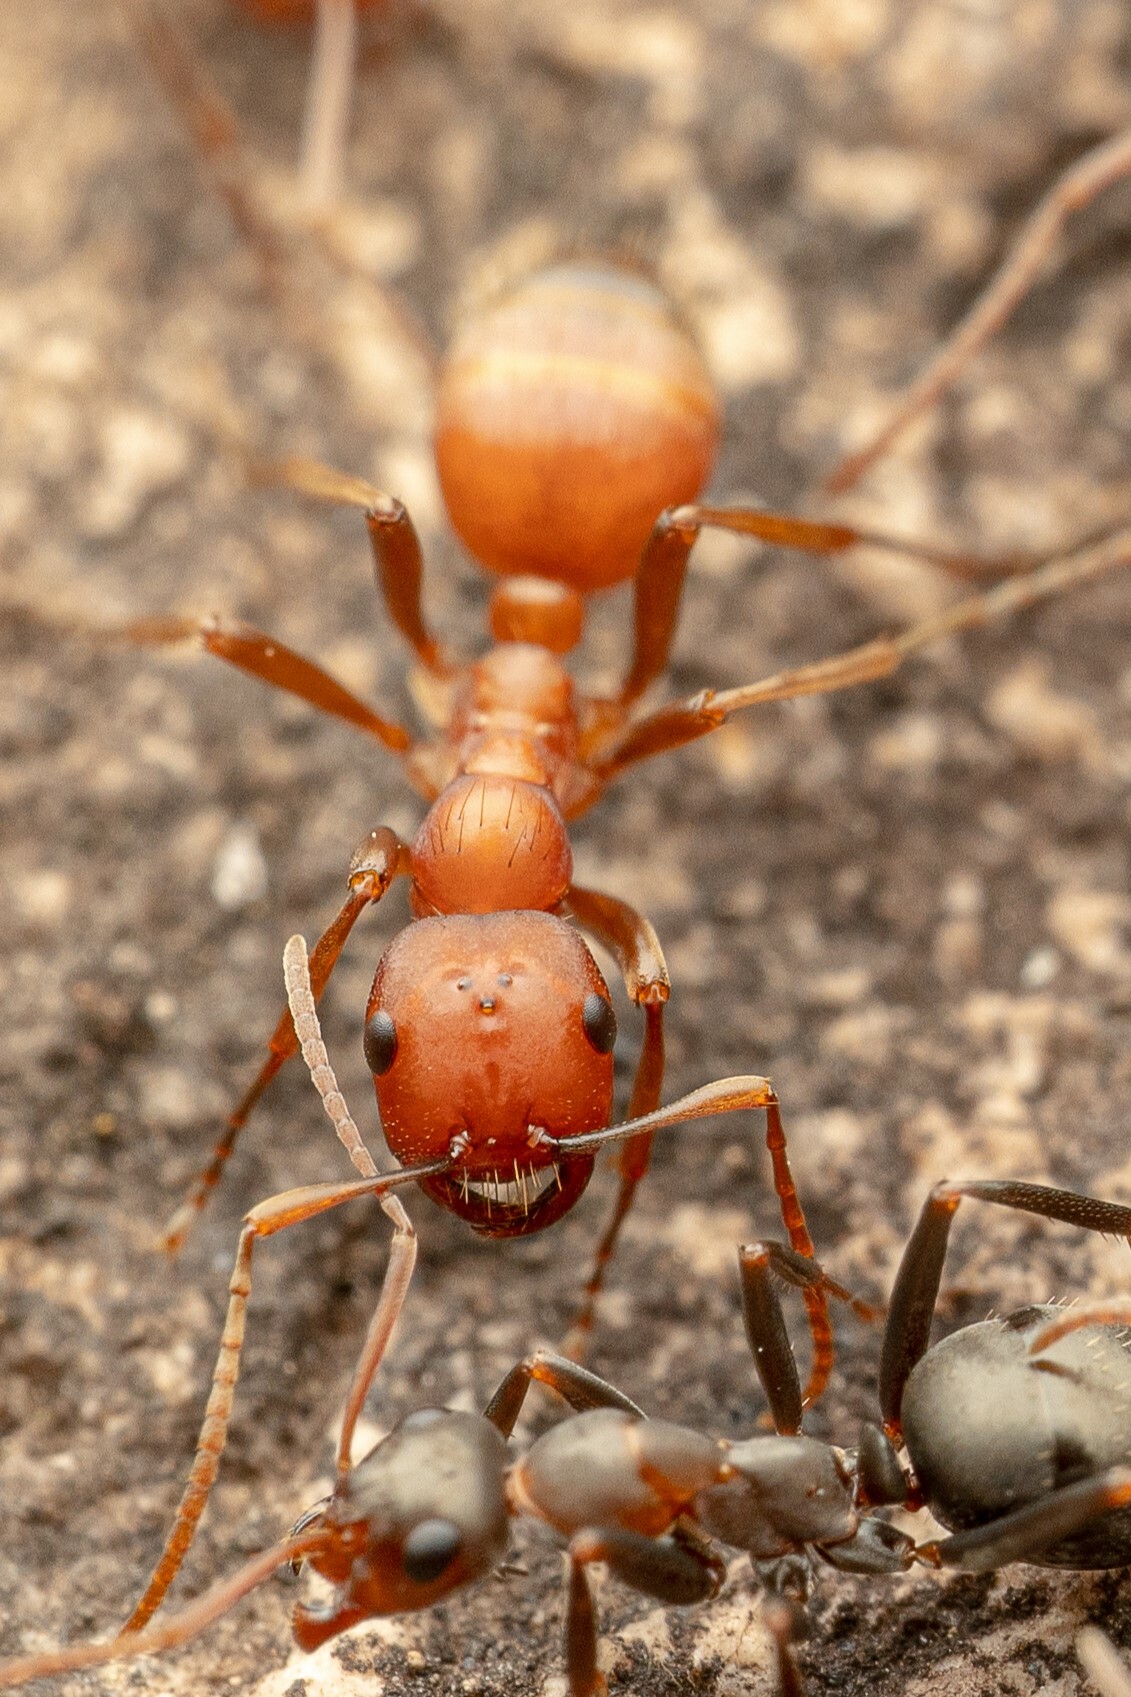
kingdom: Animalia
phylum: Arthropoda
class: Insecta
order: Hymenoptera
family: Formicidae
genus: Polyergus
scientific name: Polyergus topoffi
